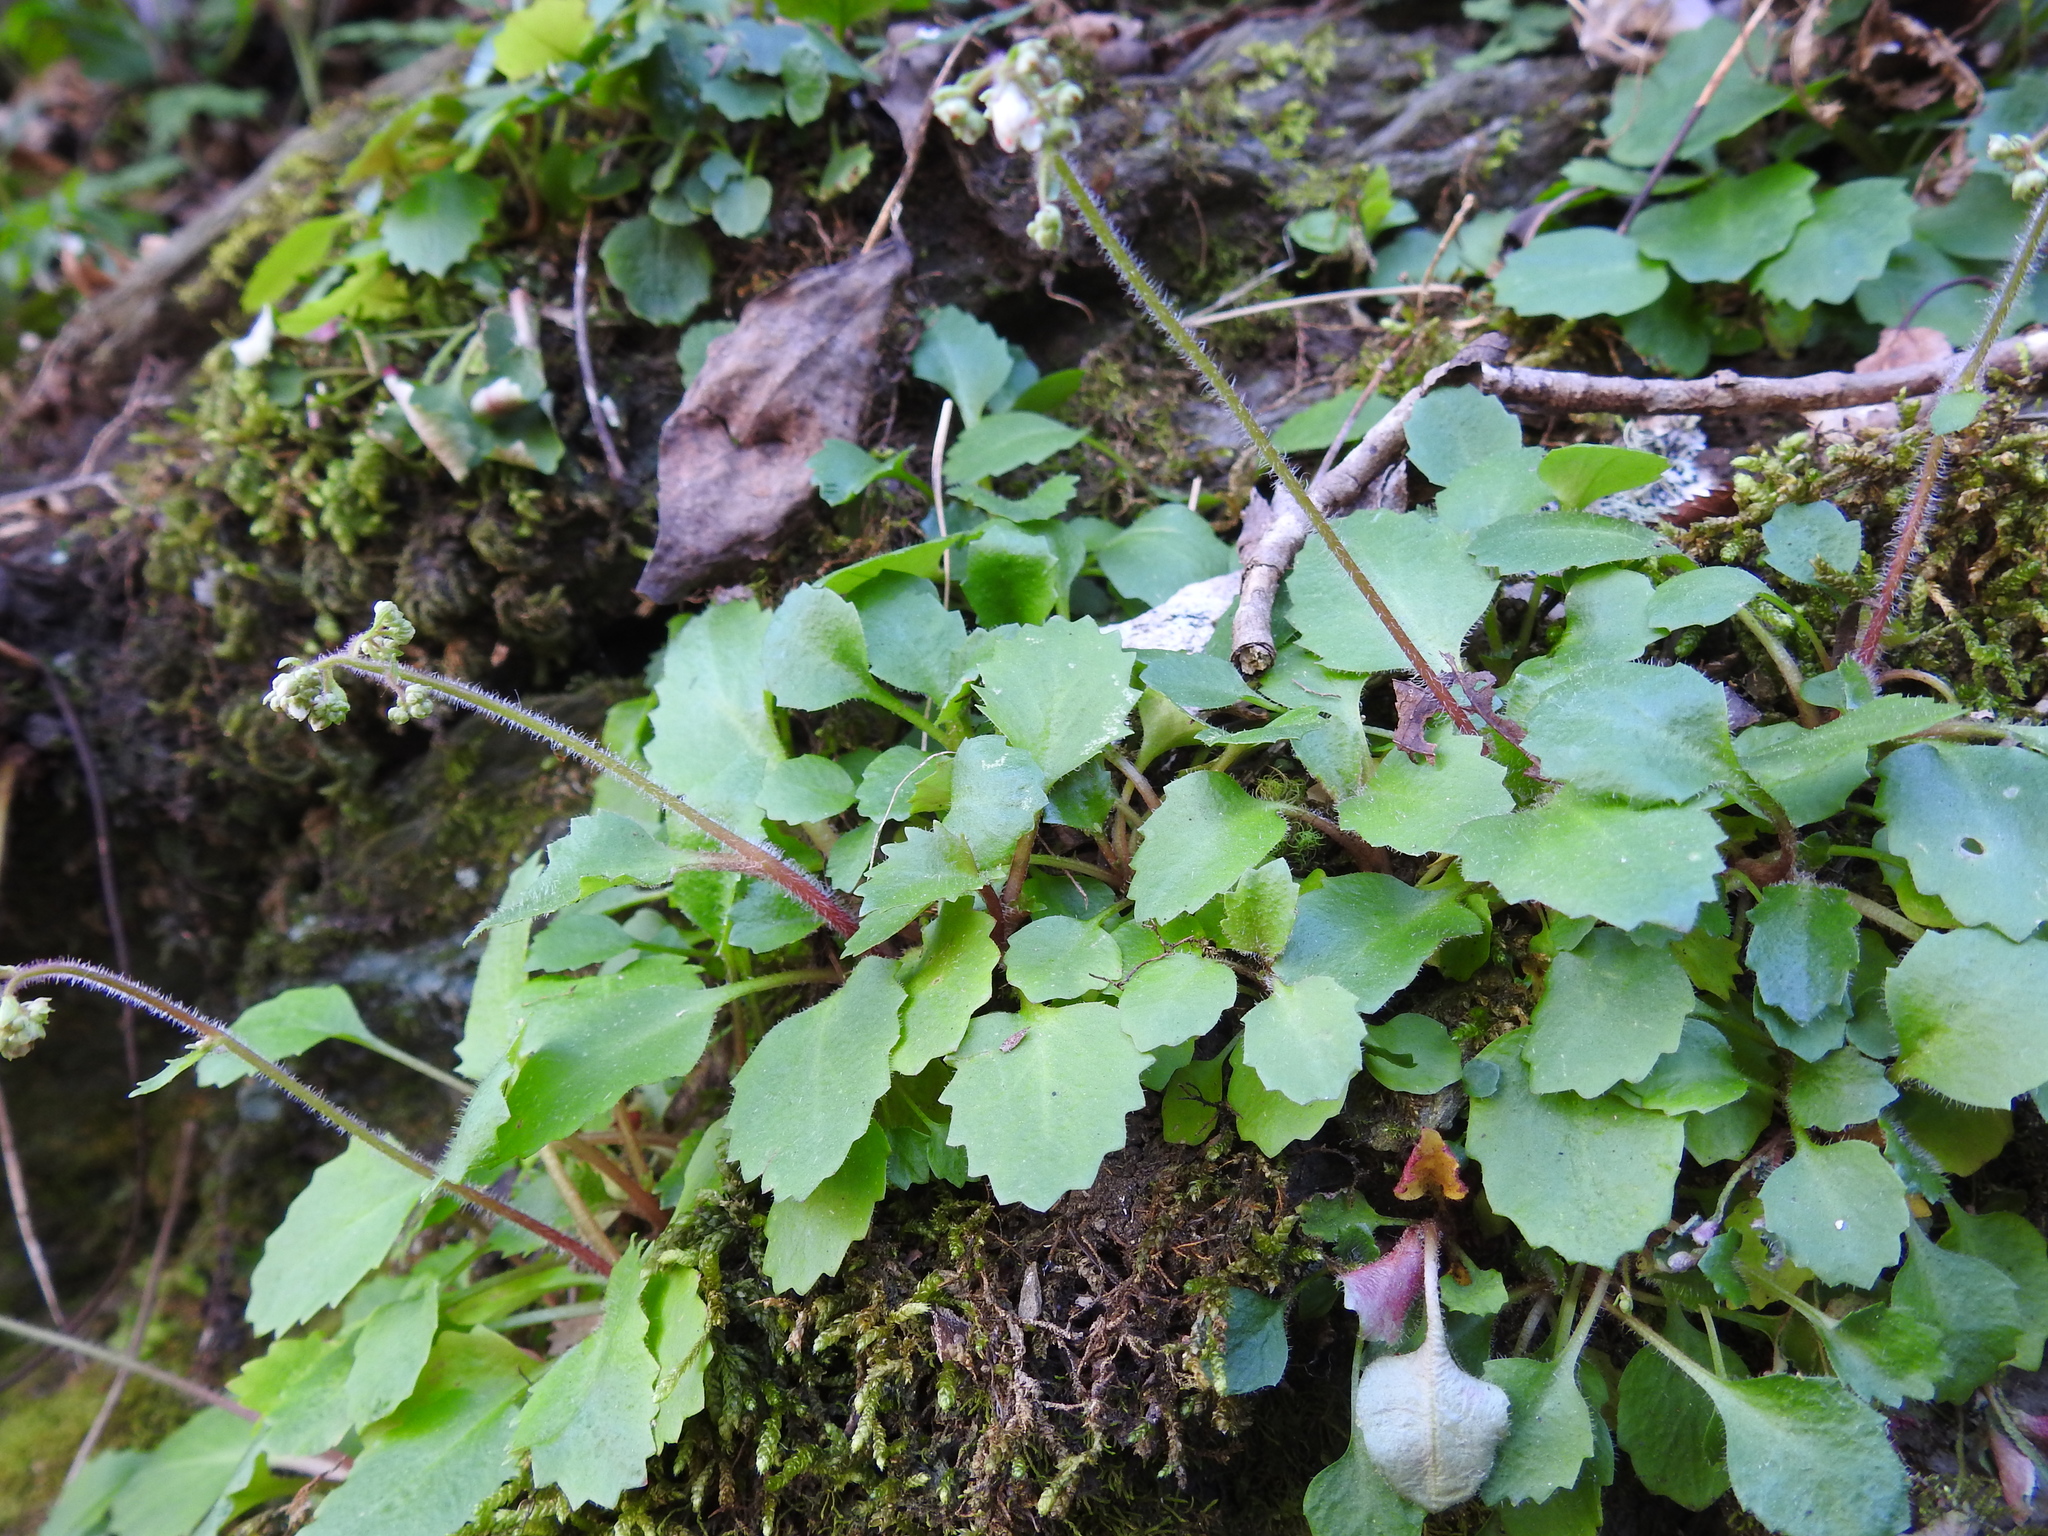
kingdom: Plantae
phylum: Tracheophyta
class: Magnoliopsida
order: Saxifragales
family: Saxifragaceae
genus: Micranthes
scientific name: Micranthes petiolaris
